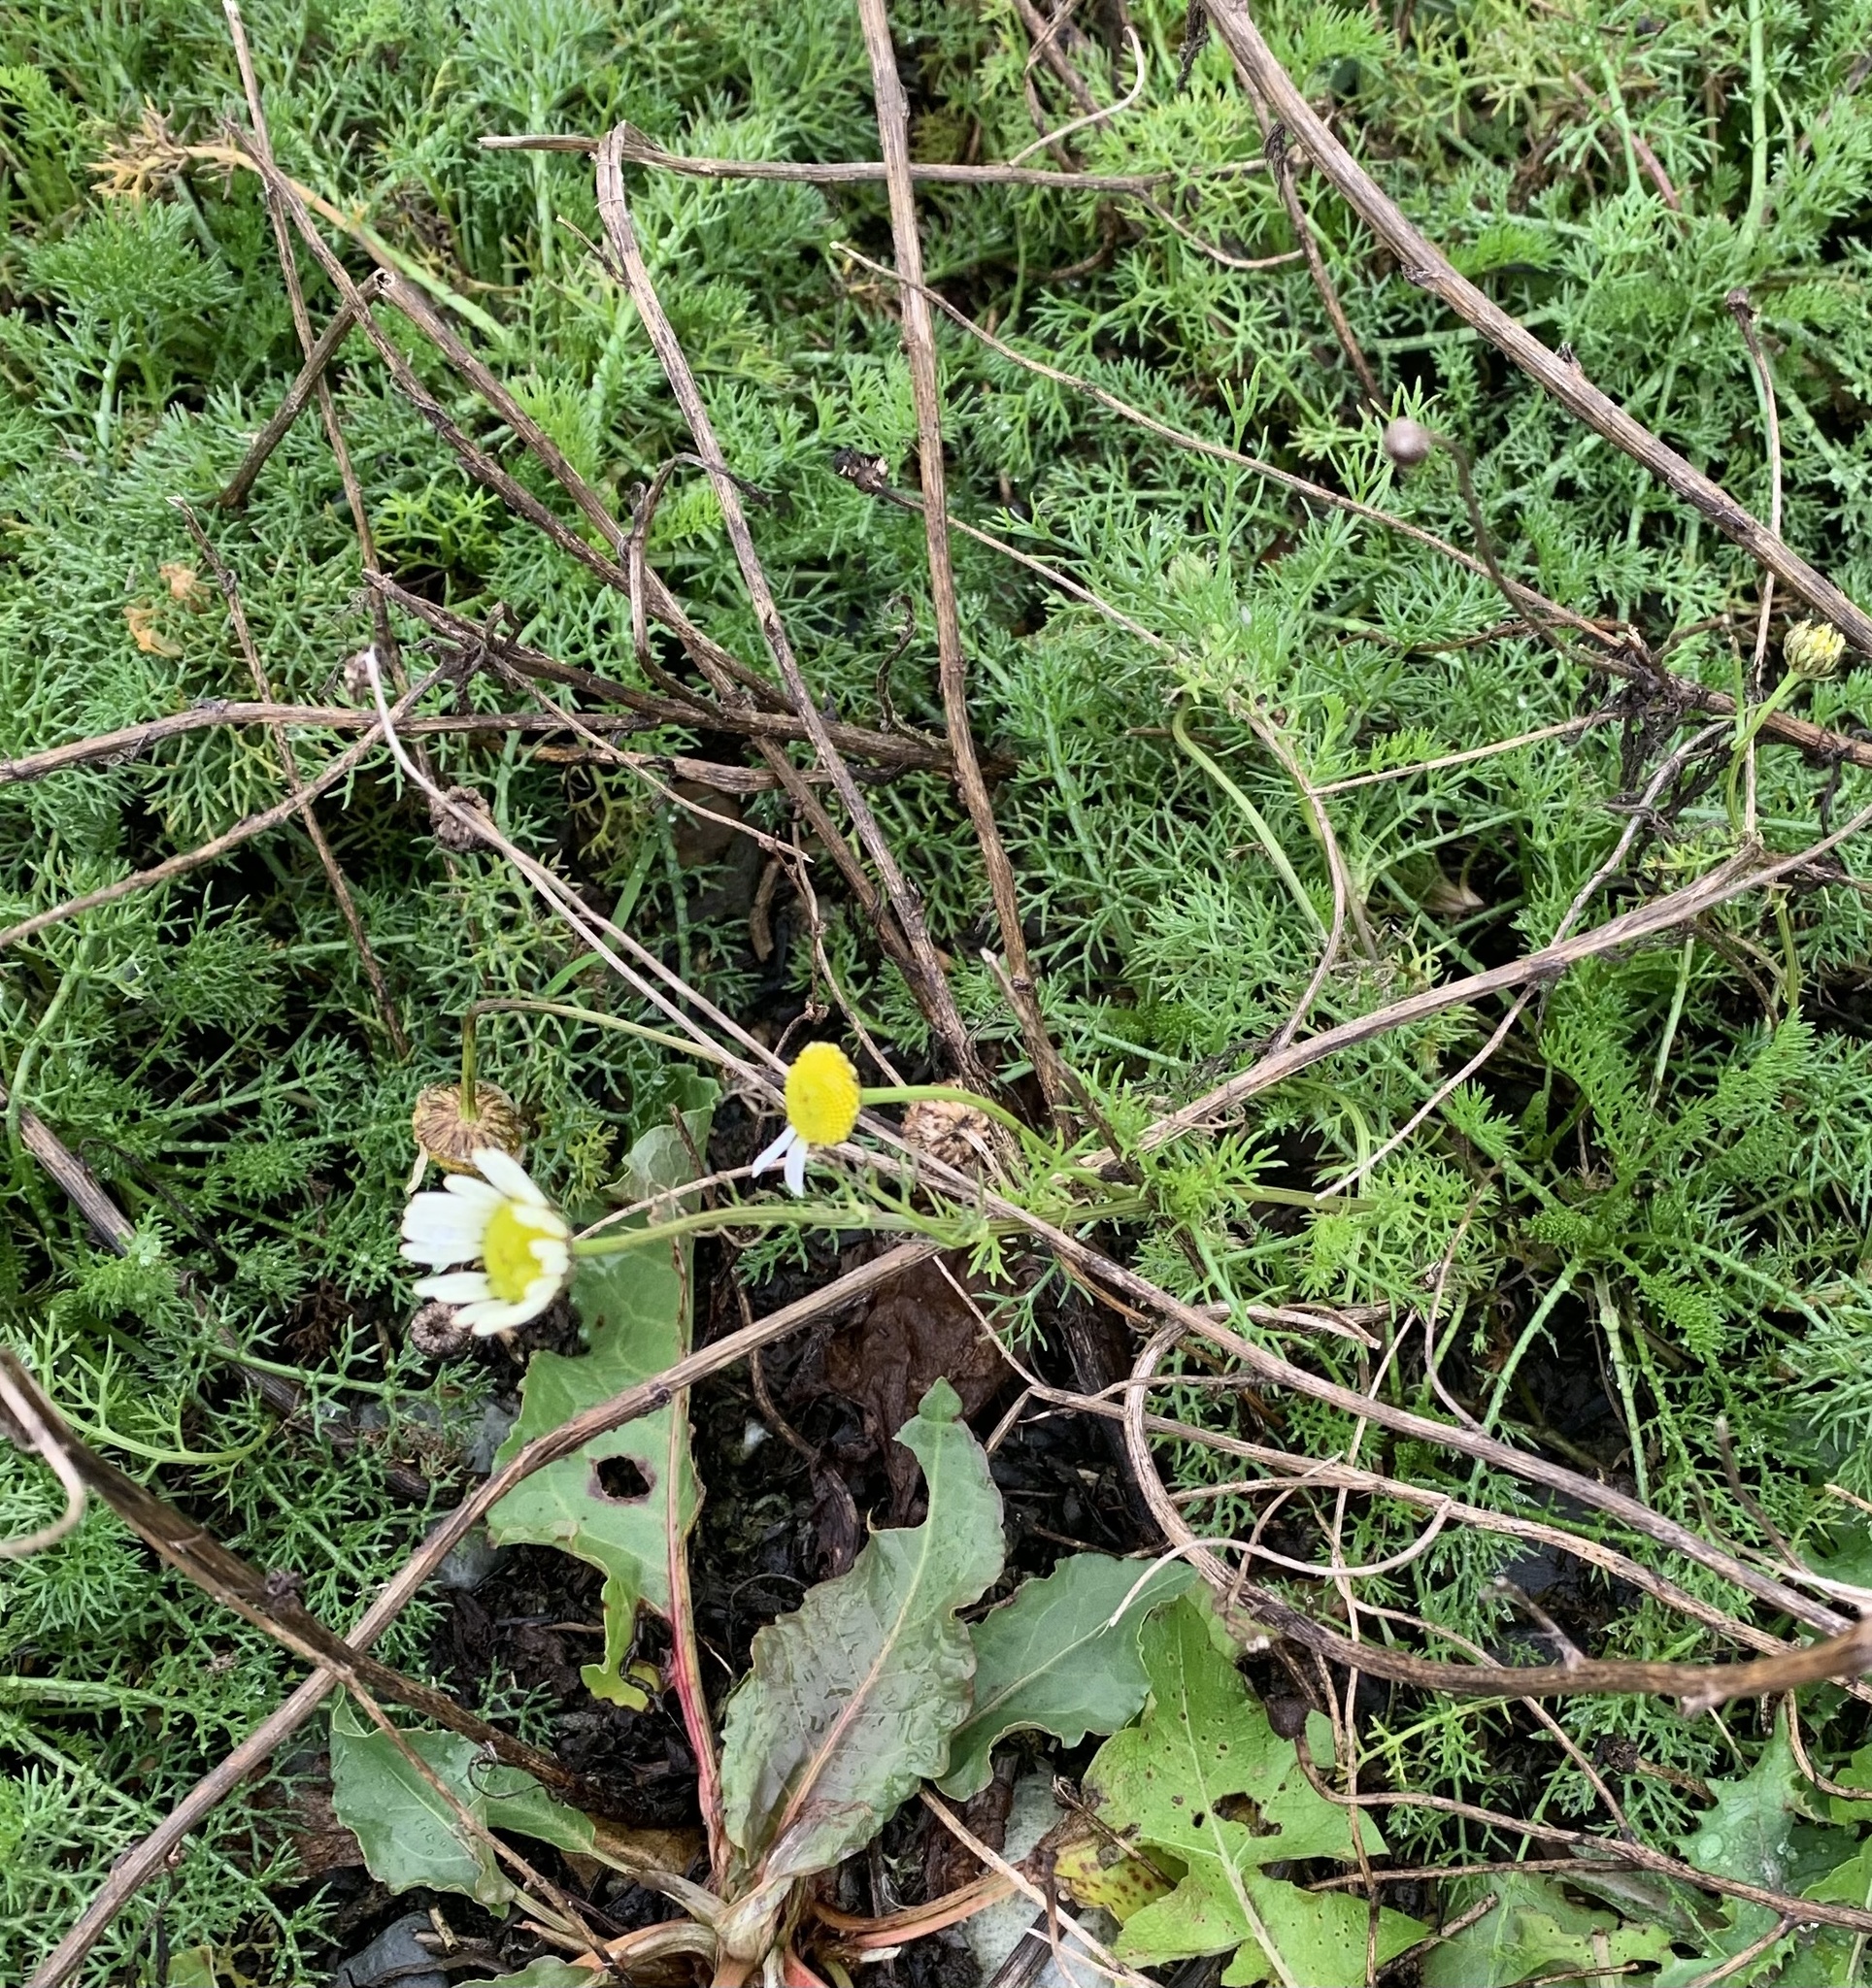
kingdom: Plantae
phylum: Tracheophyta
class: Magnoliopsida
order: Asterales
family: Asteraceae
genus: Tripleurospermum
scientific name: Tripleurospermum inodorum
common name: Scentless mayweed
